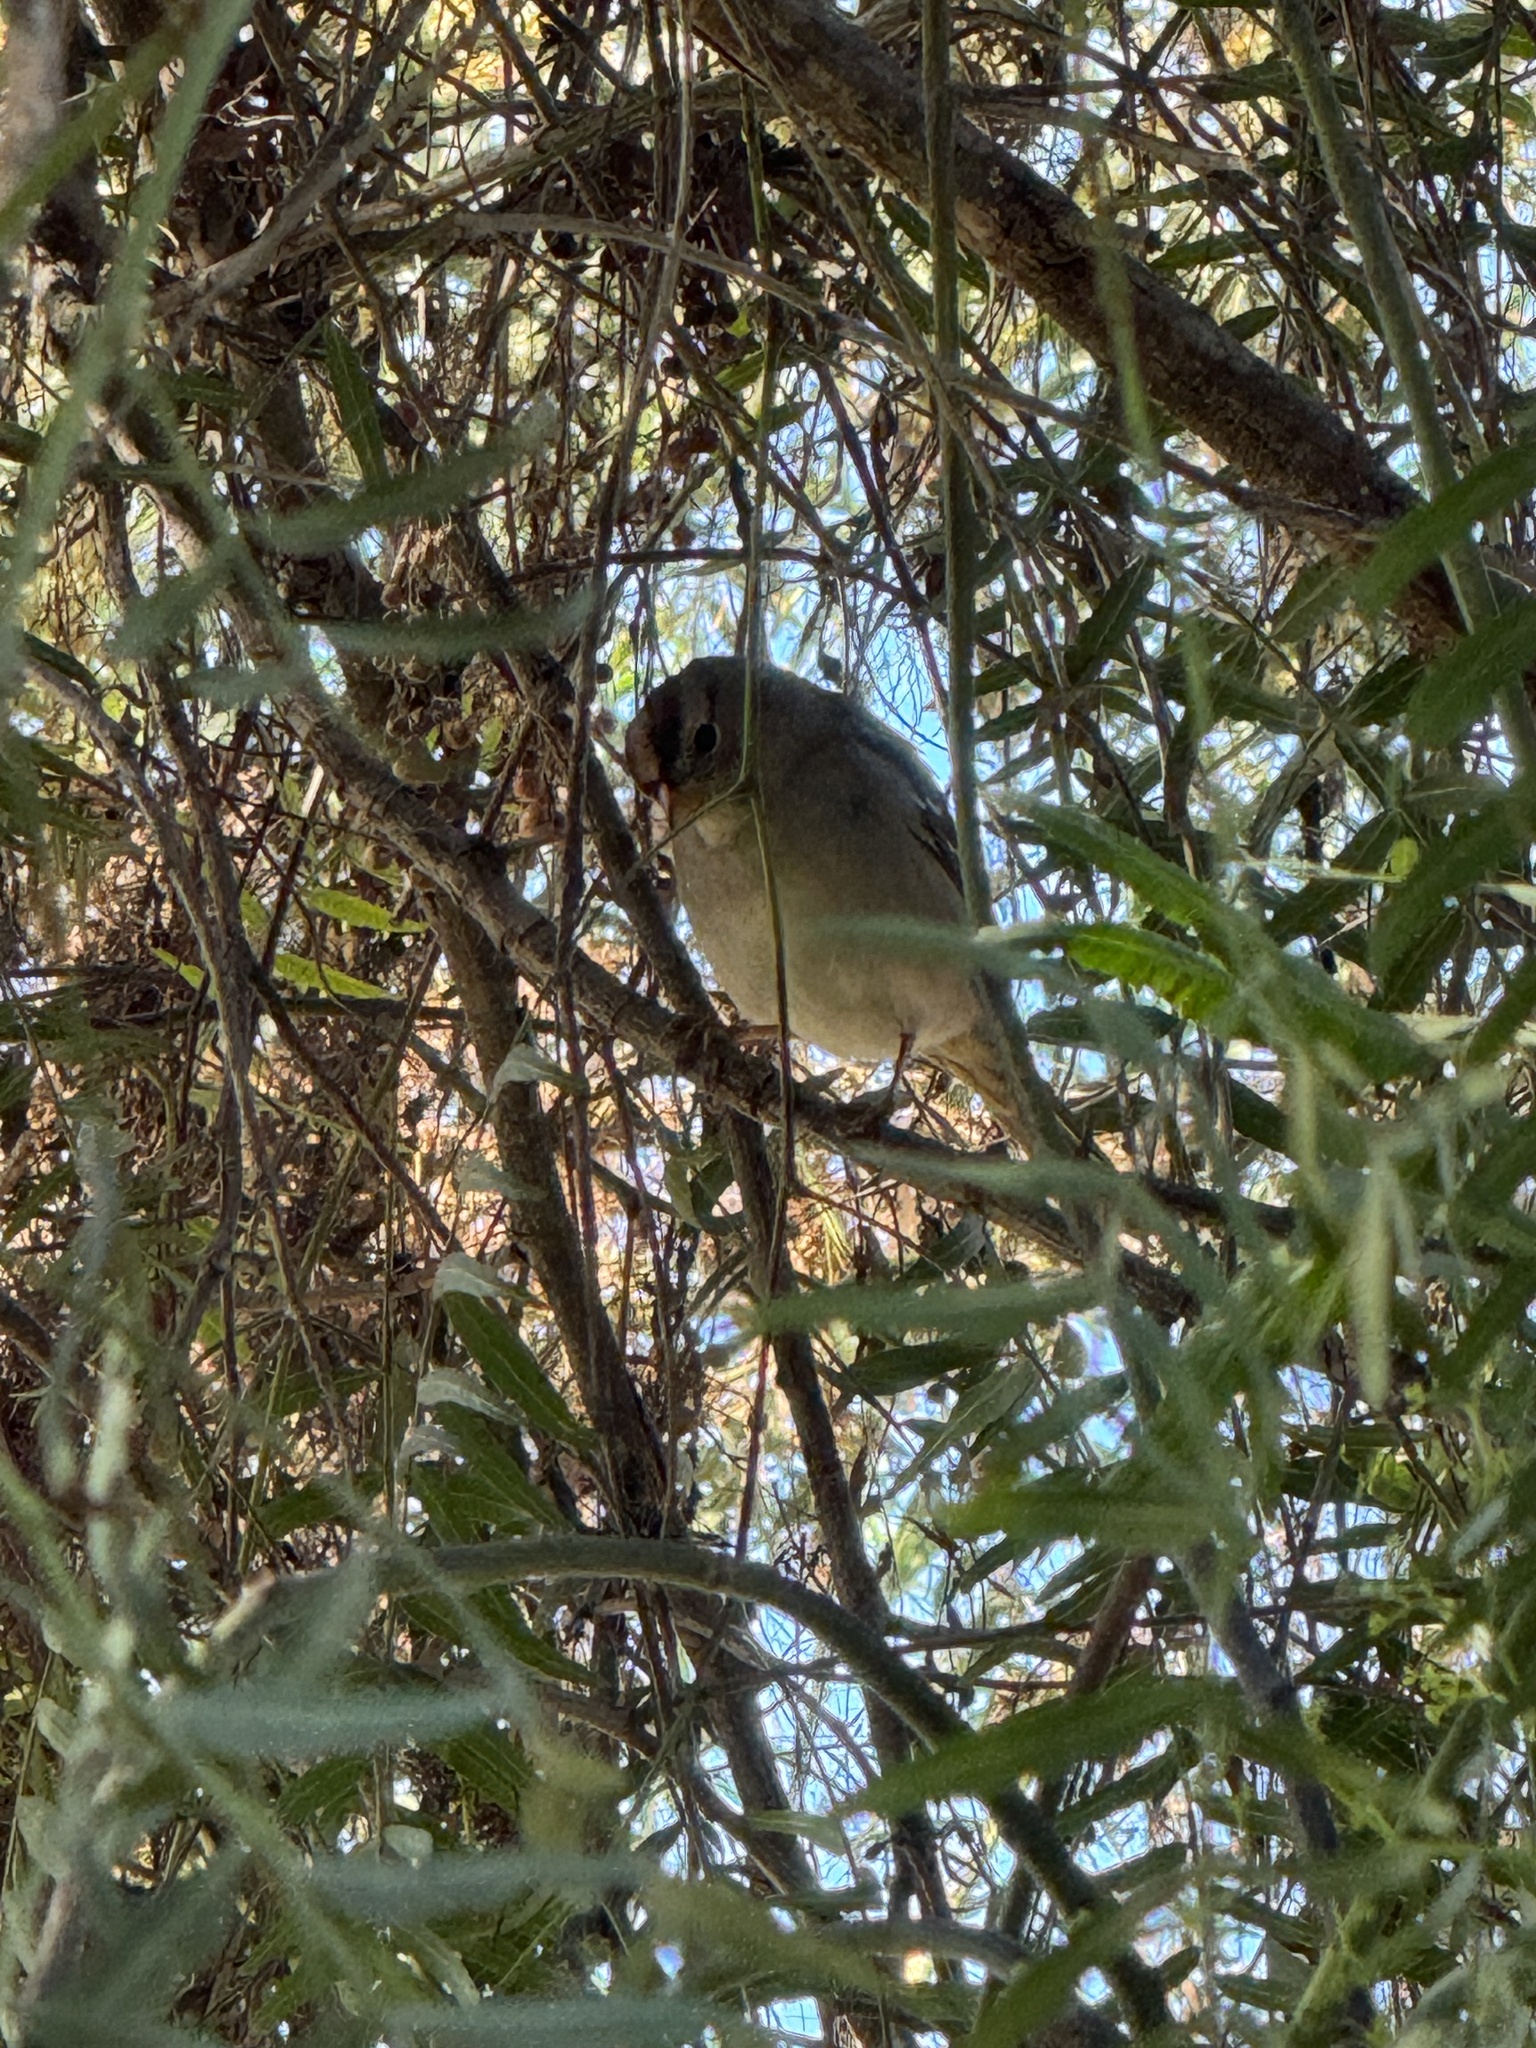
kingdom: Animalia
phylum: Chordata
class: Aves
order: Passeriformes
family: Passerellidae
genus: Zonotrichia
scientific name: Zonotrichia leucophrys
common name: White-crowned sparrow
